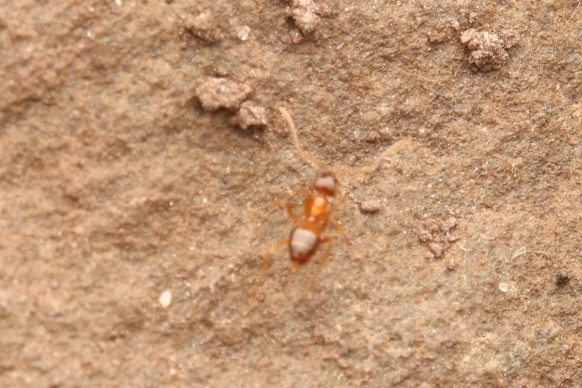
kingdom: Animalia
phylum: Arthropoda
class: Insecta
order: Hymenoptera
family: Formicidae
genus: Paratrechina
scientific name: Paratrechina flavipes
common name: Eastern asian formicine ant
